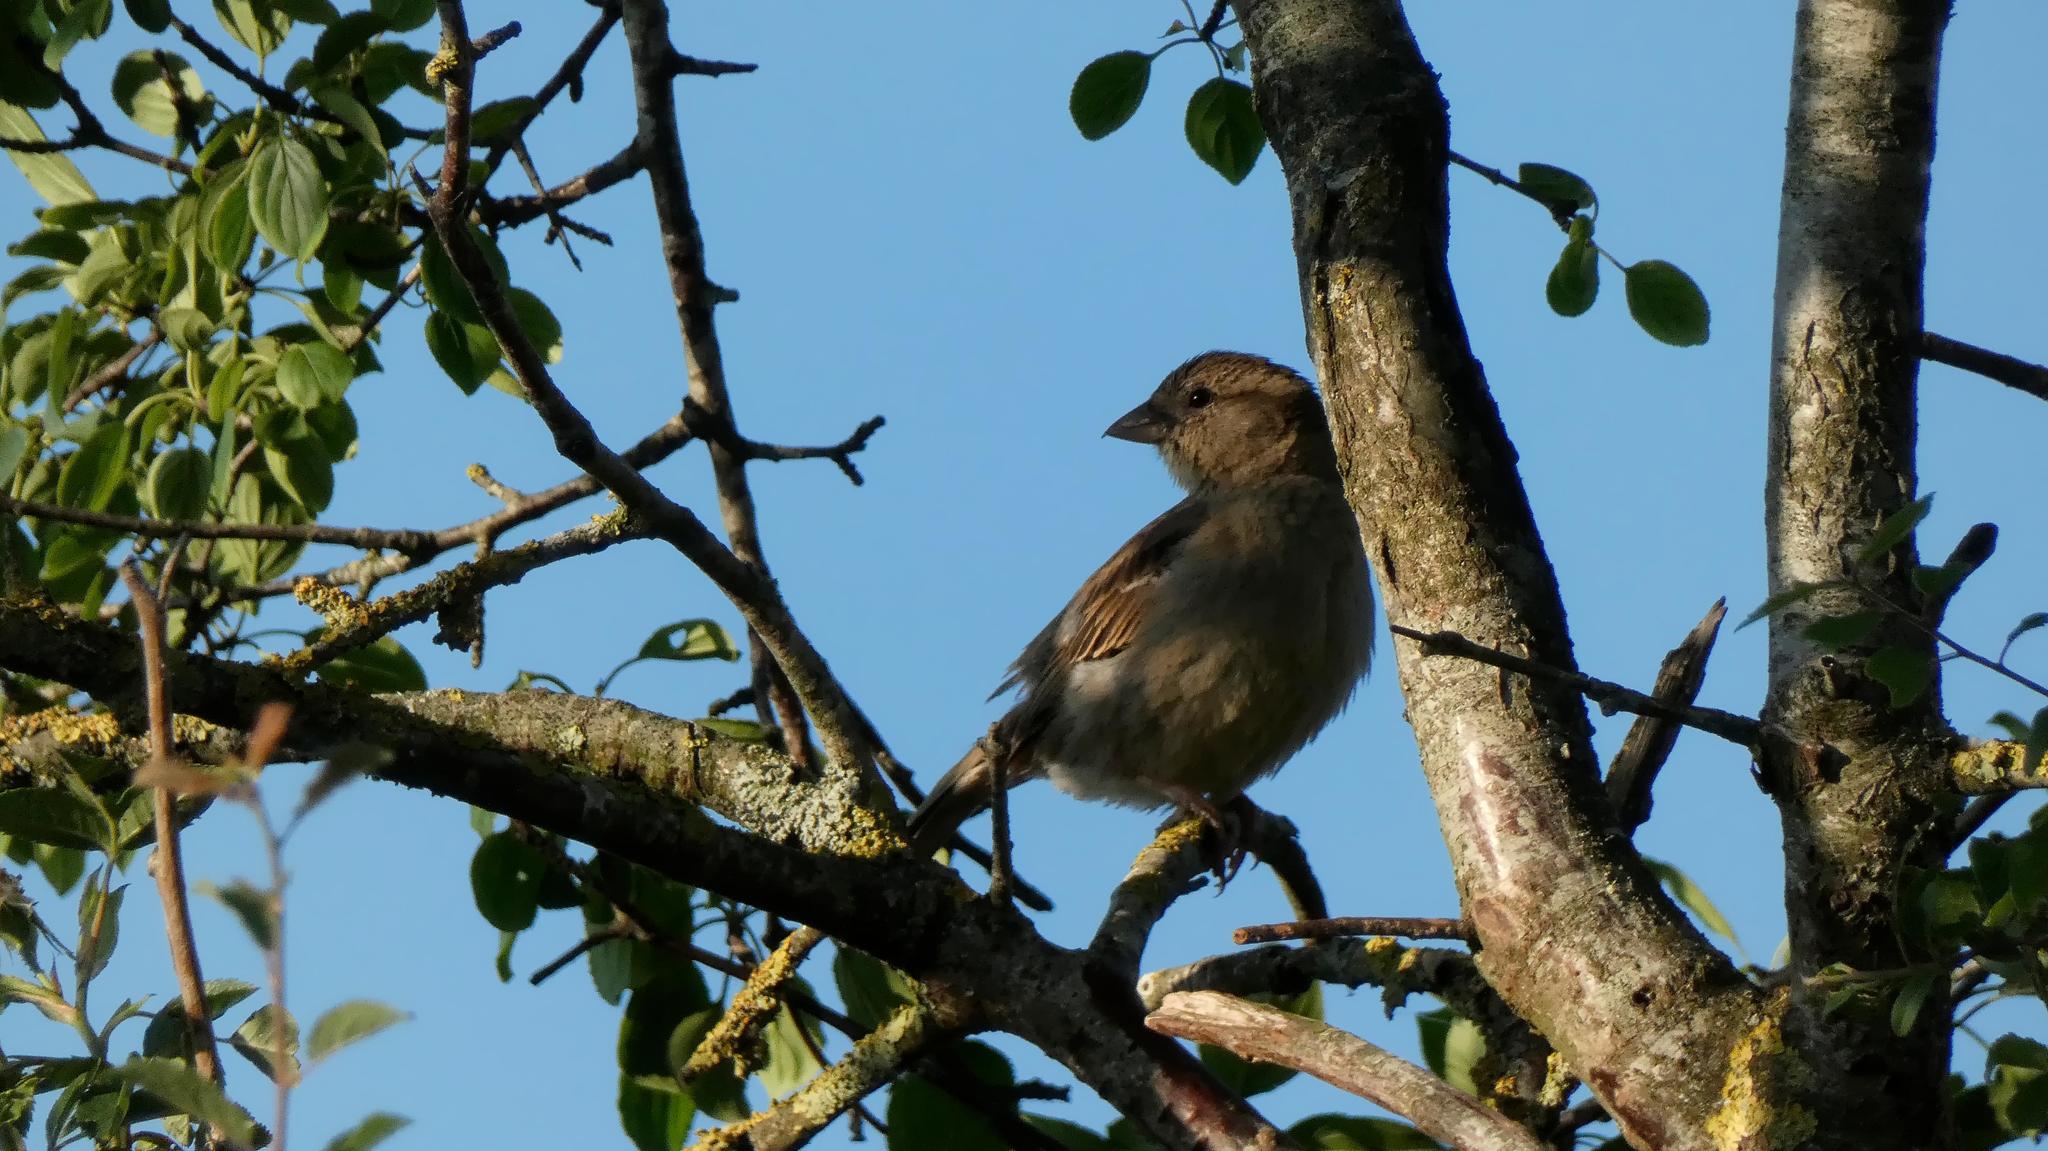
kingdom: Animalia
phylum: Chordata
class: Aves
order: Passeriformes
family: Passeridae
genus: Passer
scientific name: Passer domesticus
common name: House sparrow
